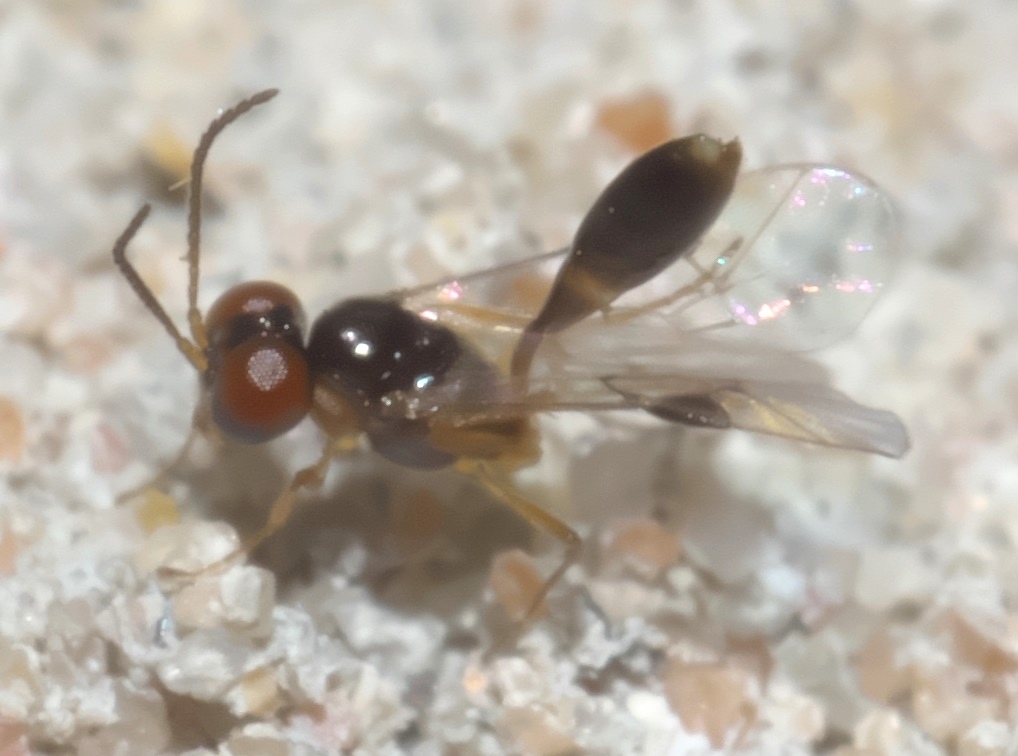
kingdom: Animalia
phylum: Arthropoda
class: Insecta
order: Hymenoptera
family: Ichneumonidae
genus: Allophrys
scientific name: Allophrys divaricata
